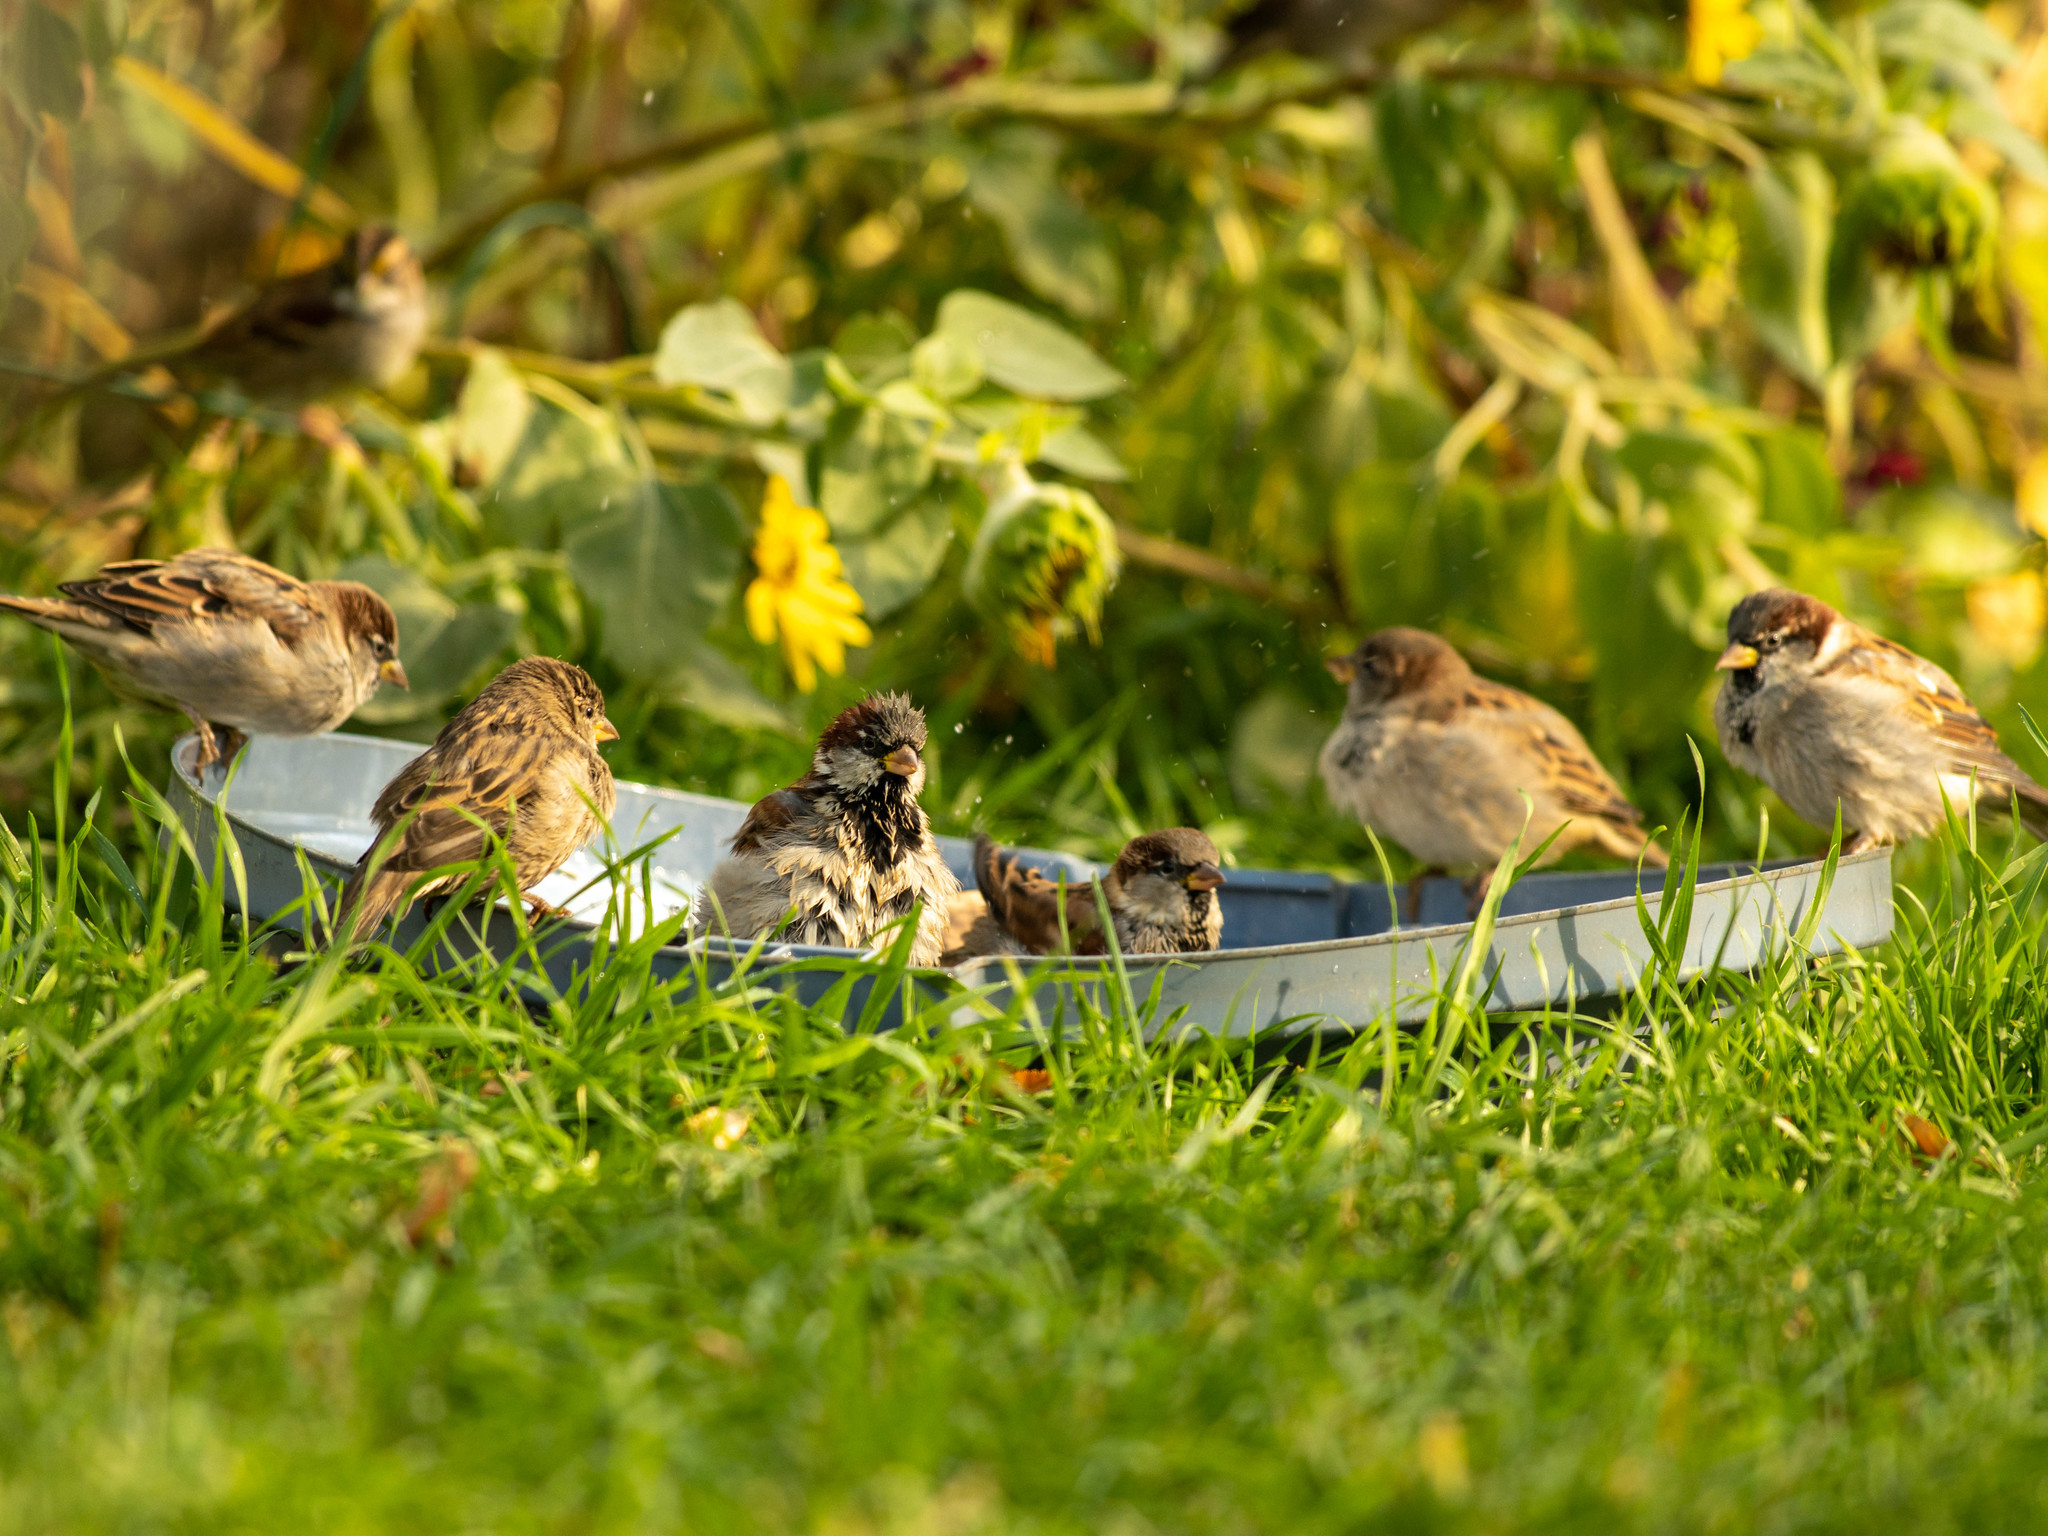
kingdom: Animalia
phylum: Chordata
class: Aves
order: Passeriformes
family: Passeridae
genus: Passer
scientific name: Passer domesticus
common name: House sparrow
